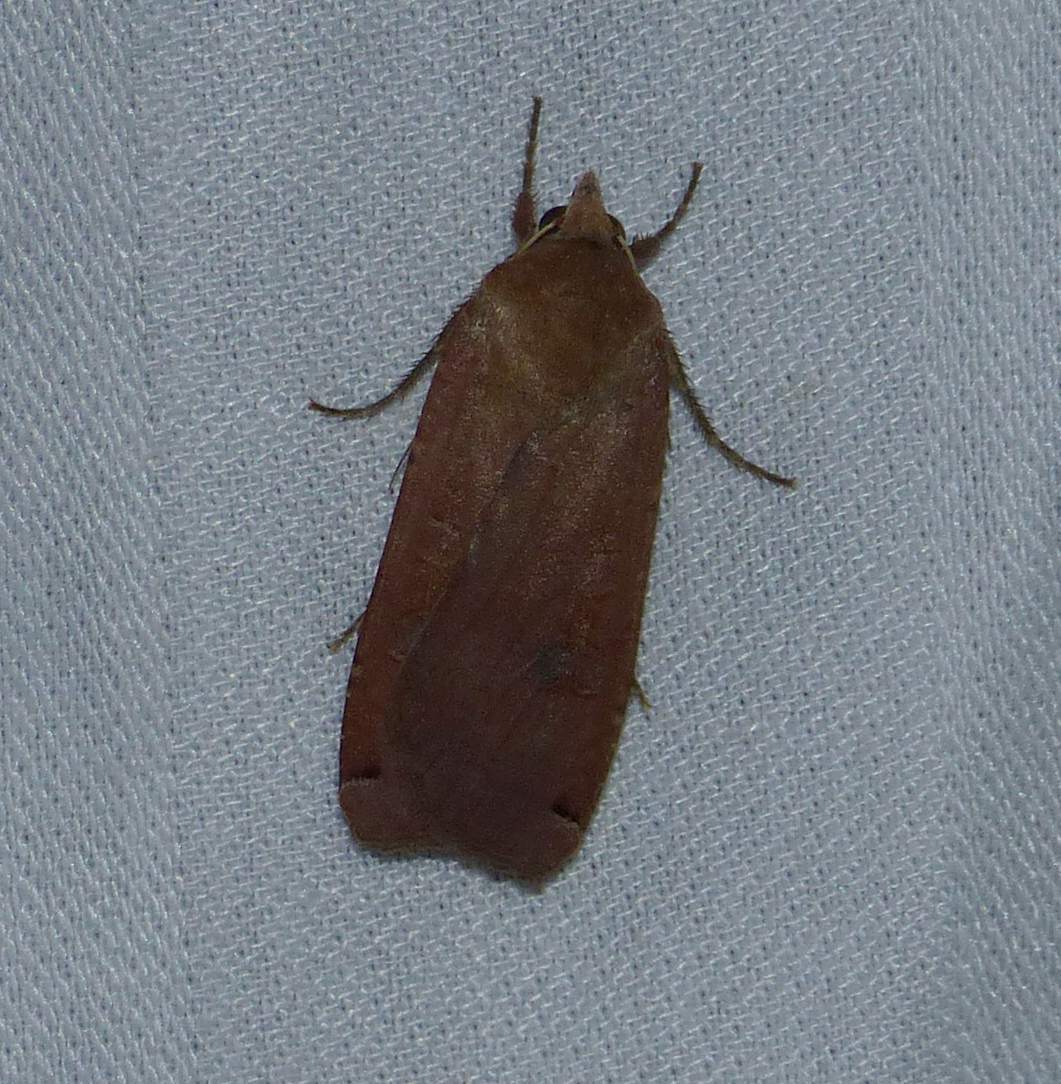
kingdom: Animalia
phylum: Arthropoda
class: Insecta
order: Lepidoptera
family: Noctuidae
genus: Noctua
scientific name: Noctua pronuba
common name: Large yellow underwing
